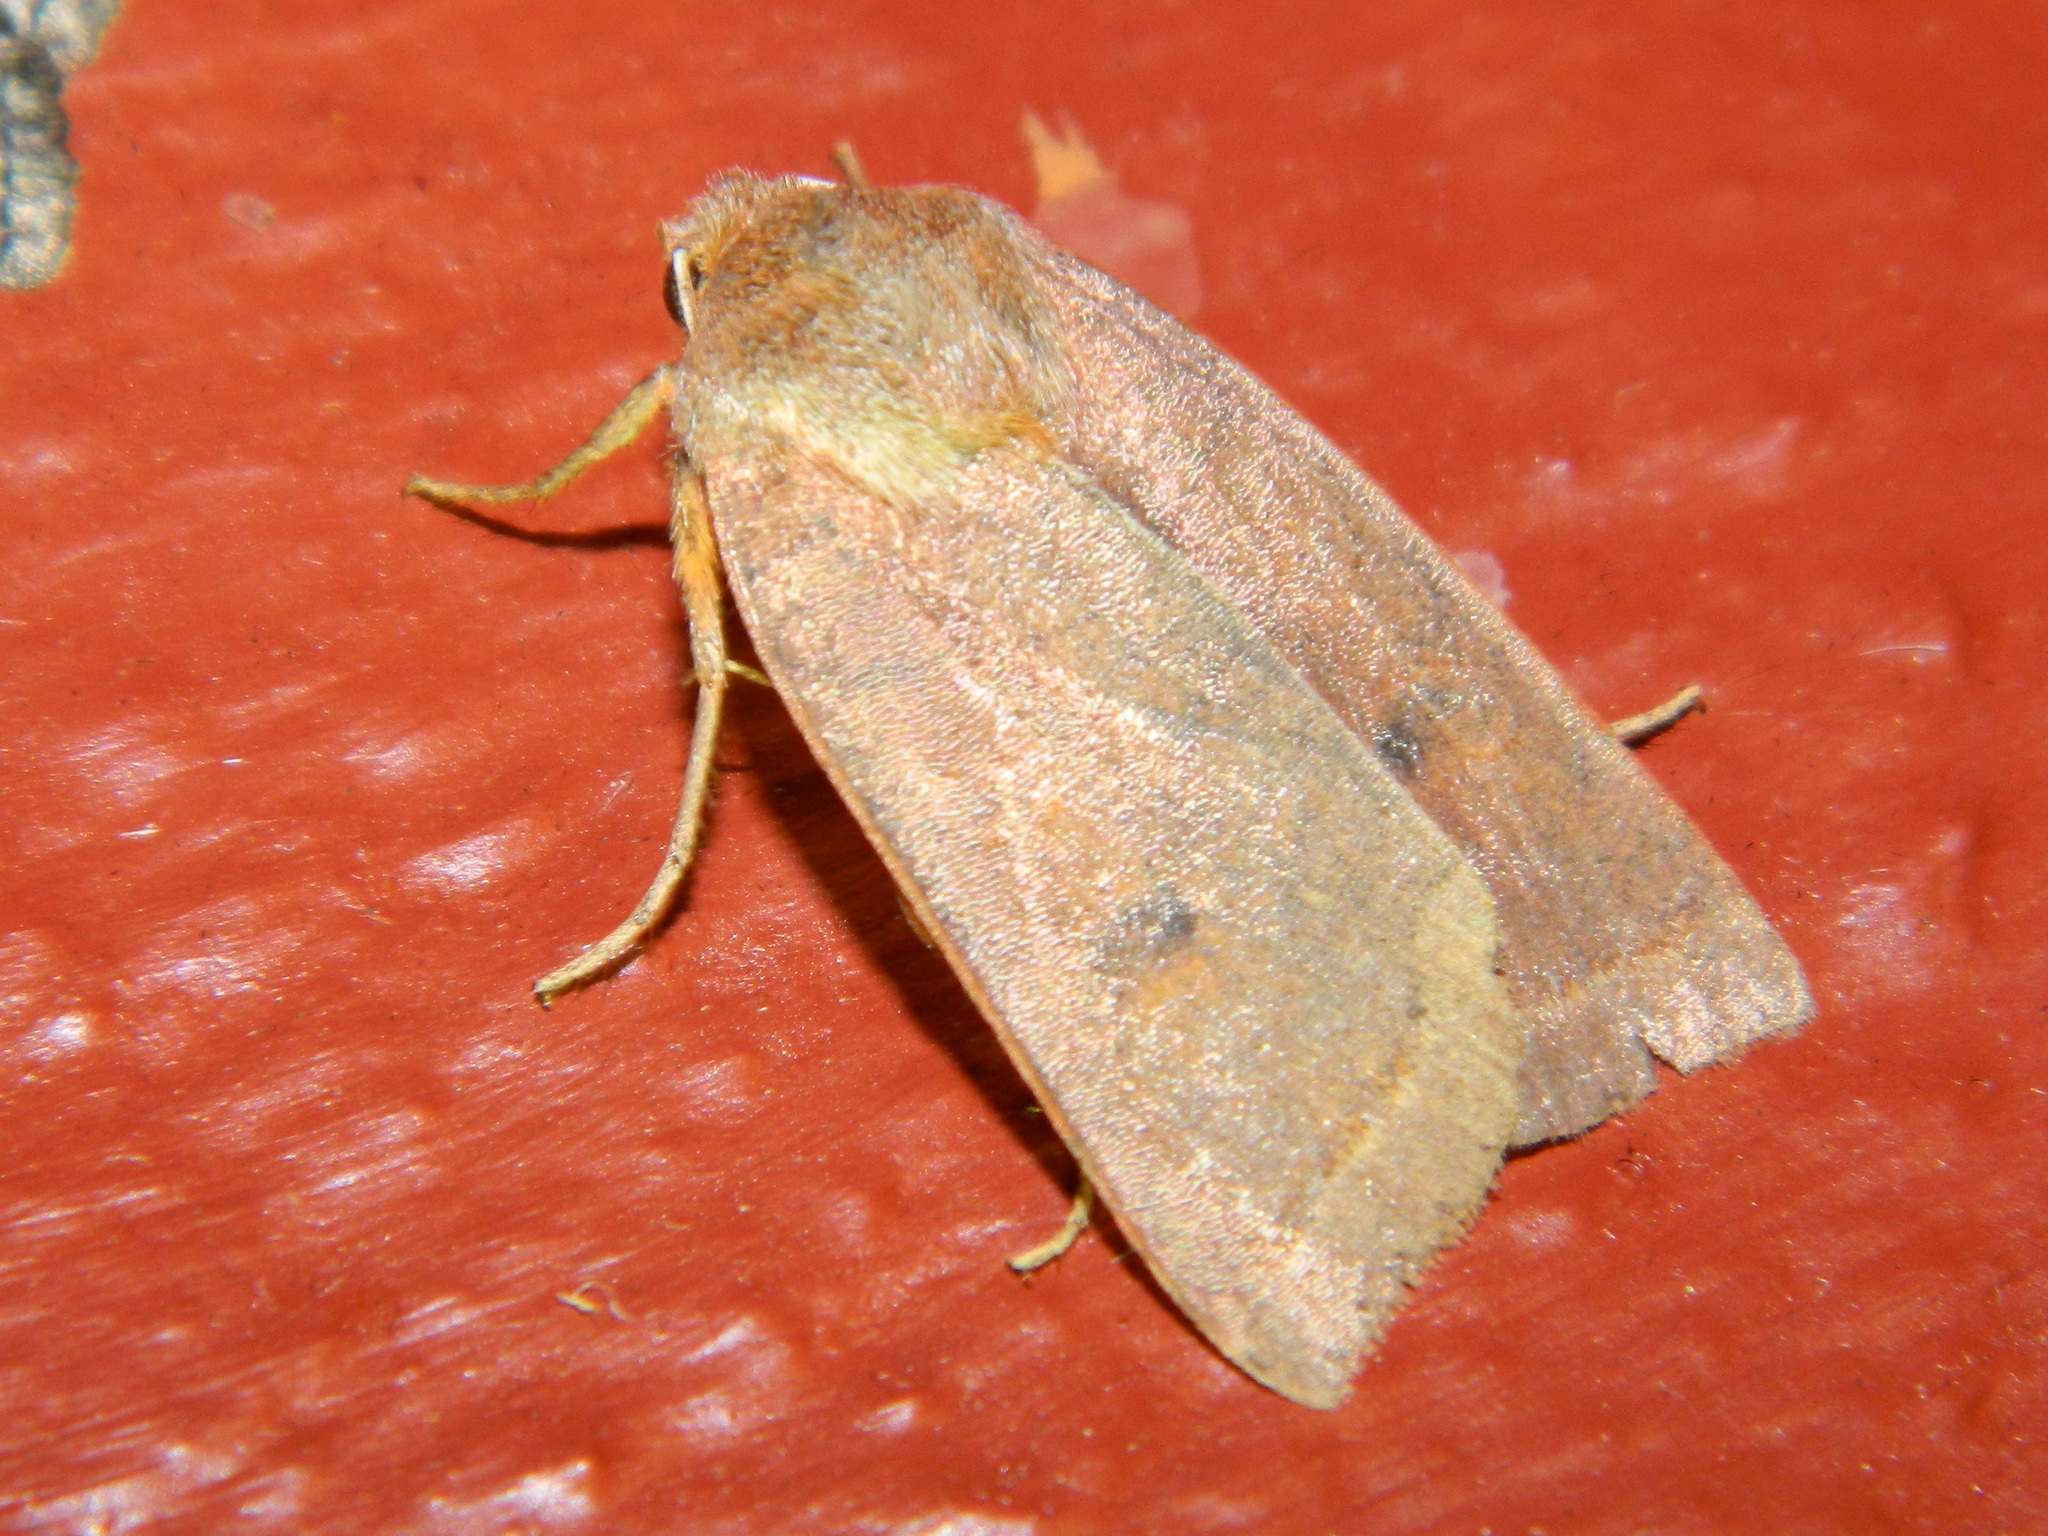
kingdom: Animalia
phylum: Arthropoda
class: Insecta
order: Lepidoptera
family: Noctuidae
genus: Epiglaea
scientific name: Epiglaea apiata
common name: Pointed sallow
